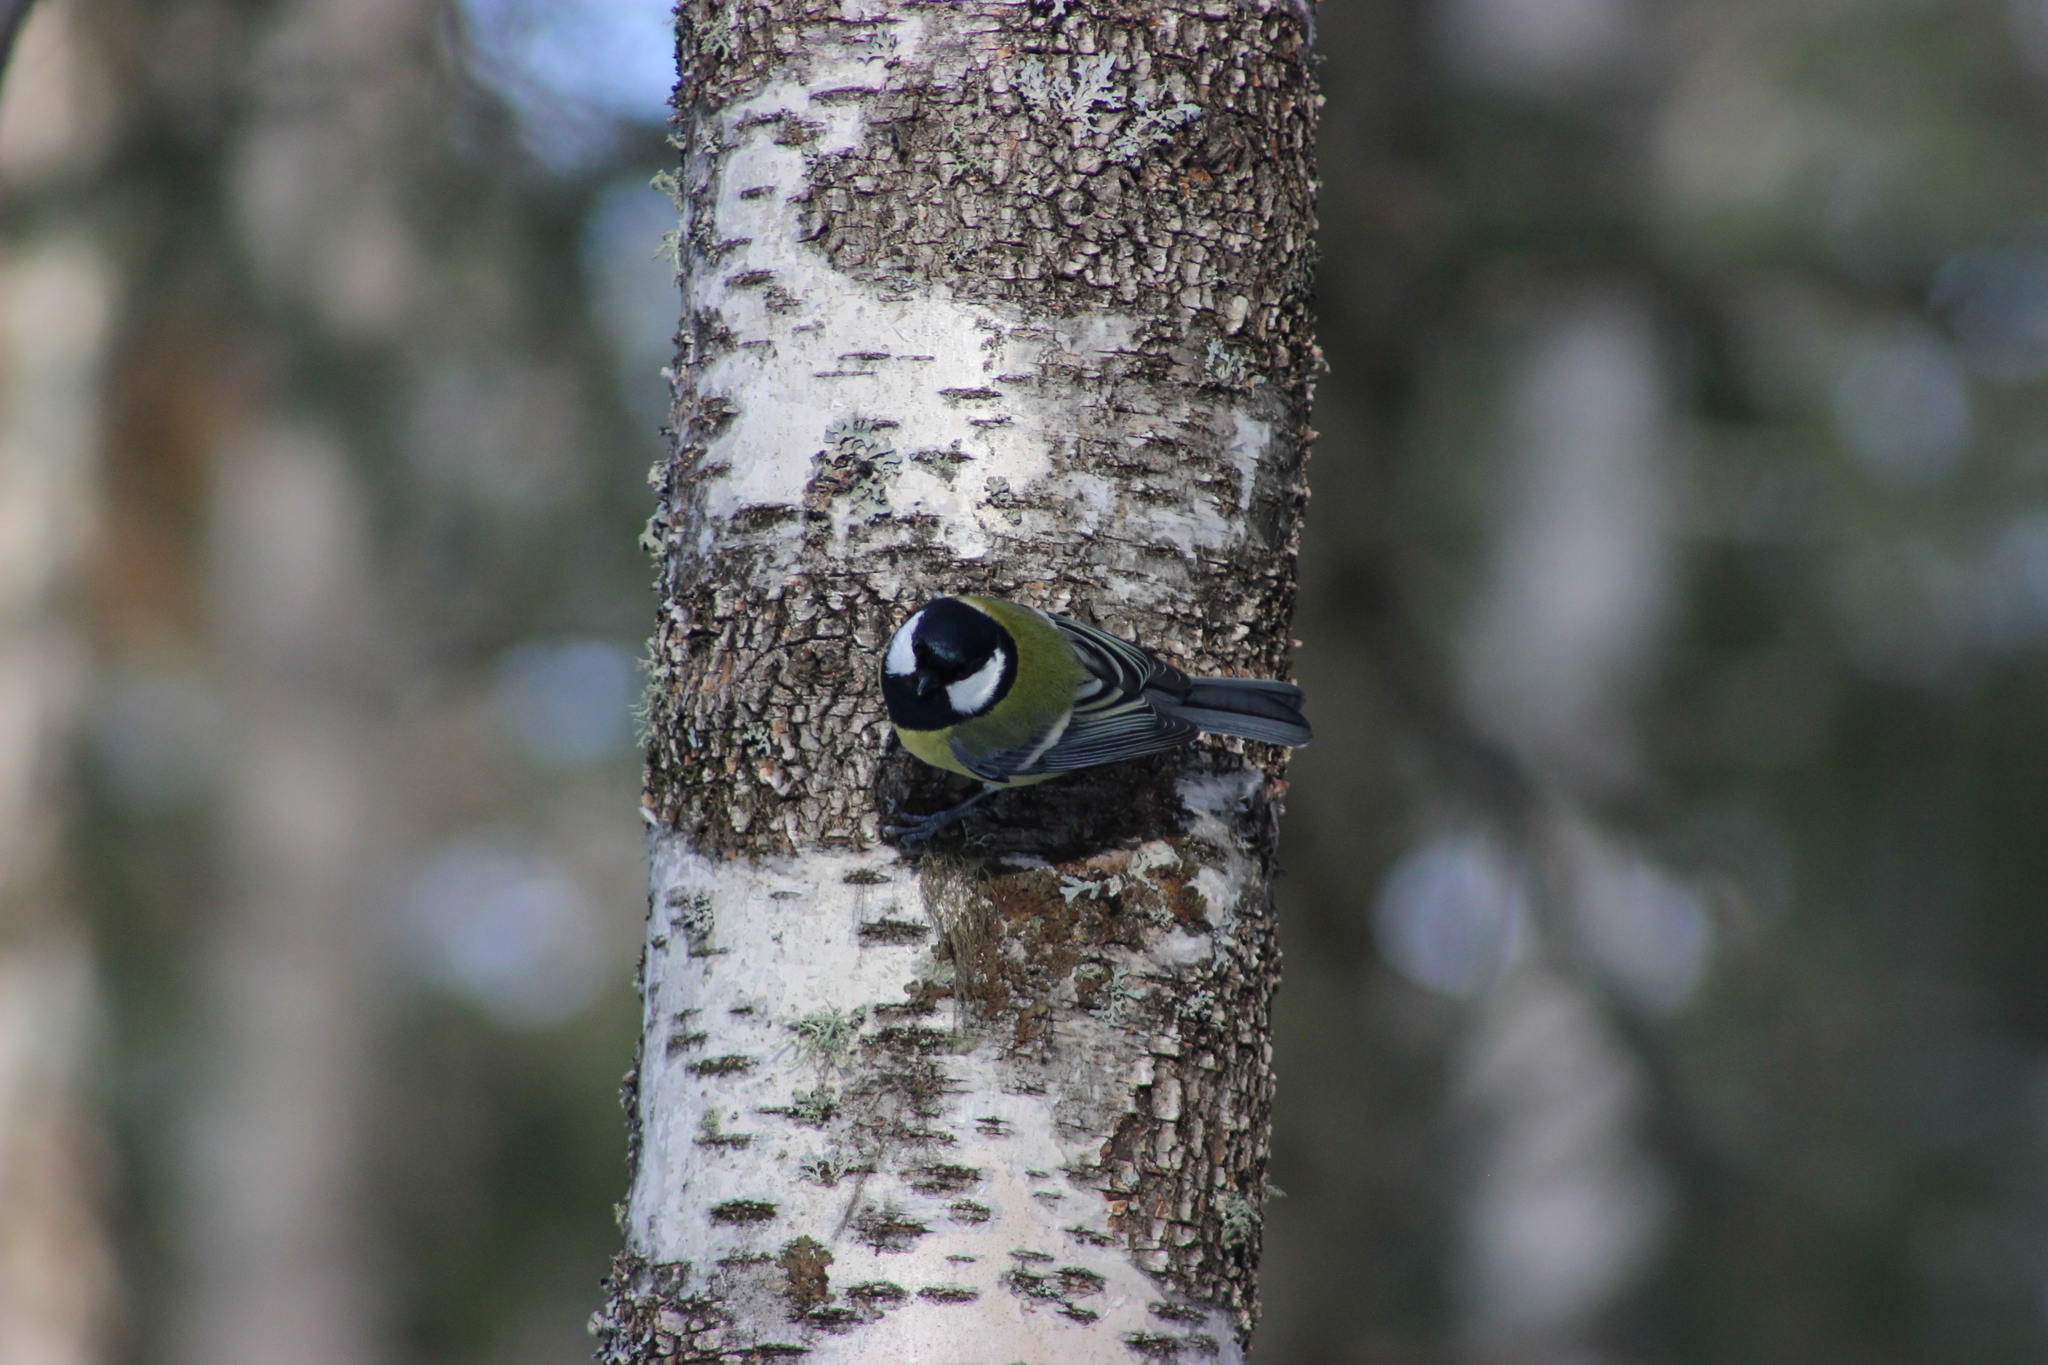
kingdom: Animalia
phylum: Chordata
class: Aves
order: Passeriformes
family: Paridae
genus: Parus
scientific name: Parus major
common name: Great tit
